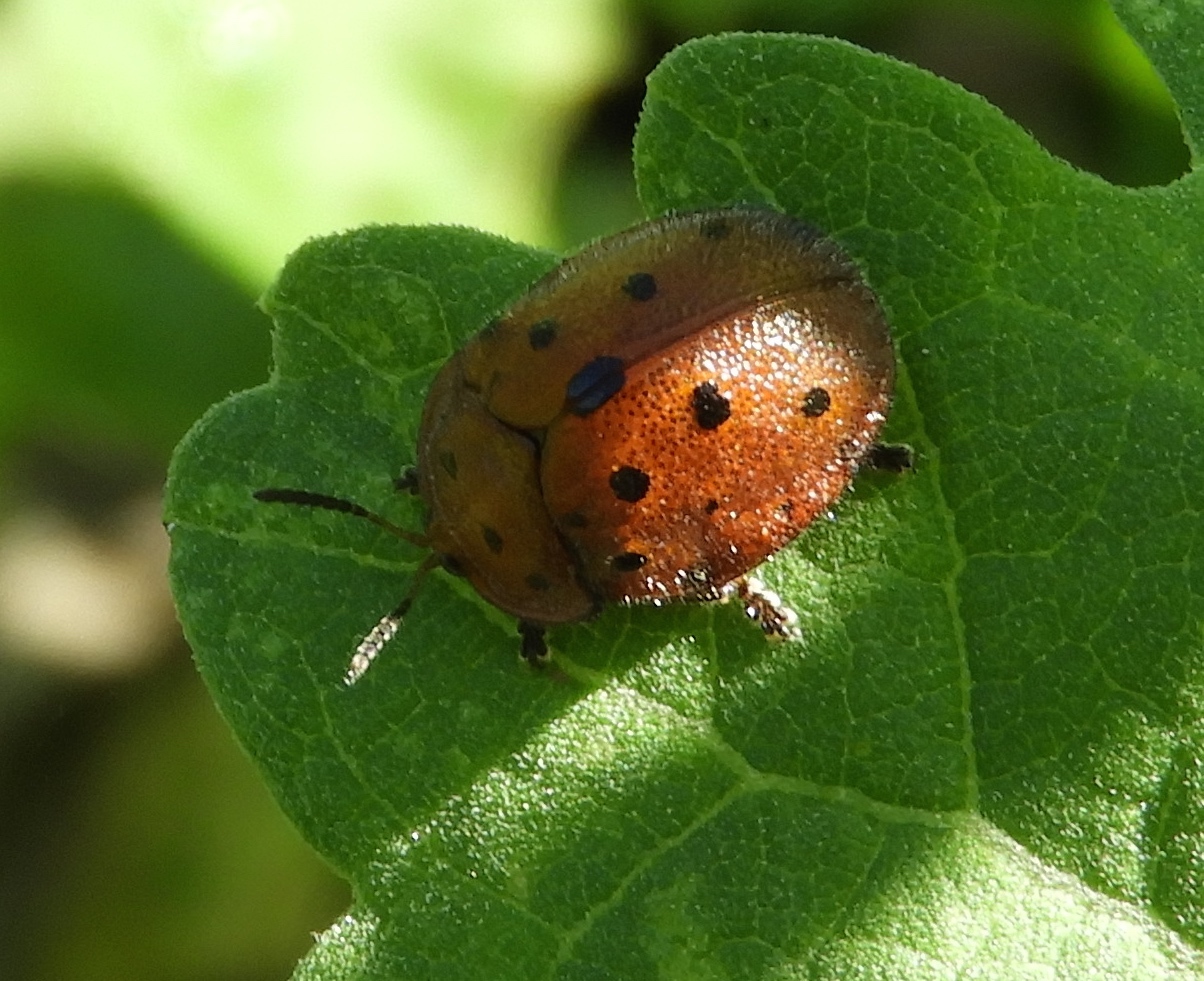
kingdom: Animalia
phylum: Arthropoda
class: Insecta
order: Coleoptera
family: Chrysomelidae
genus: Chelymorpha
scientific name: Chelymorpha
